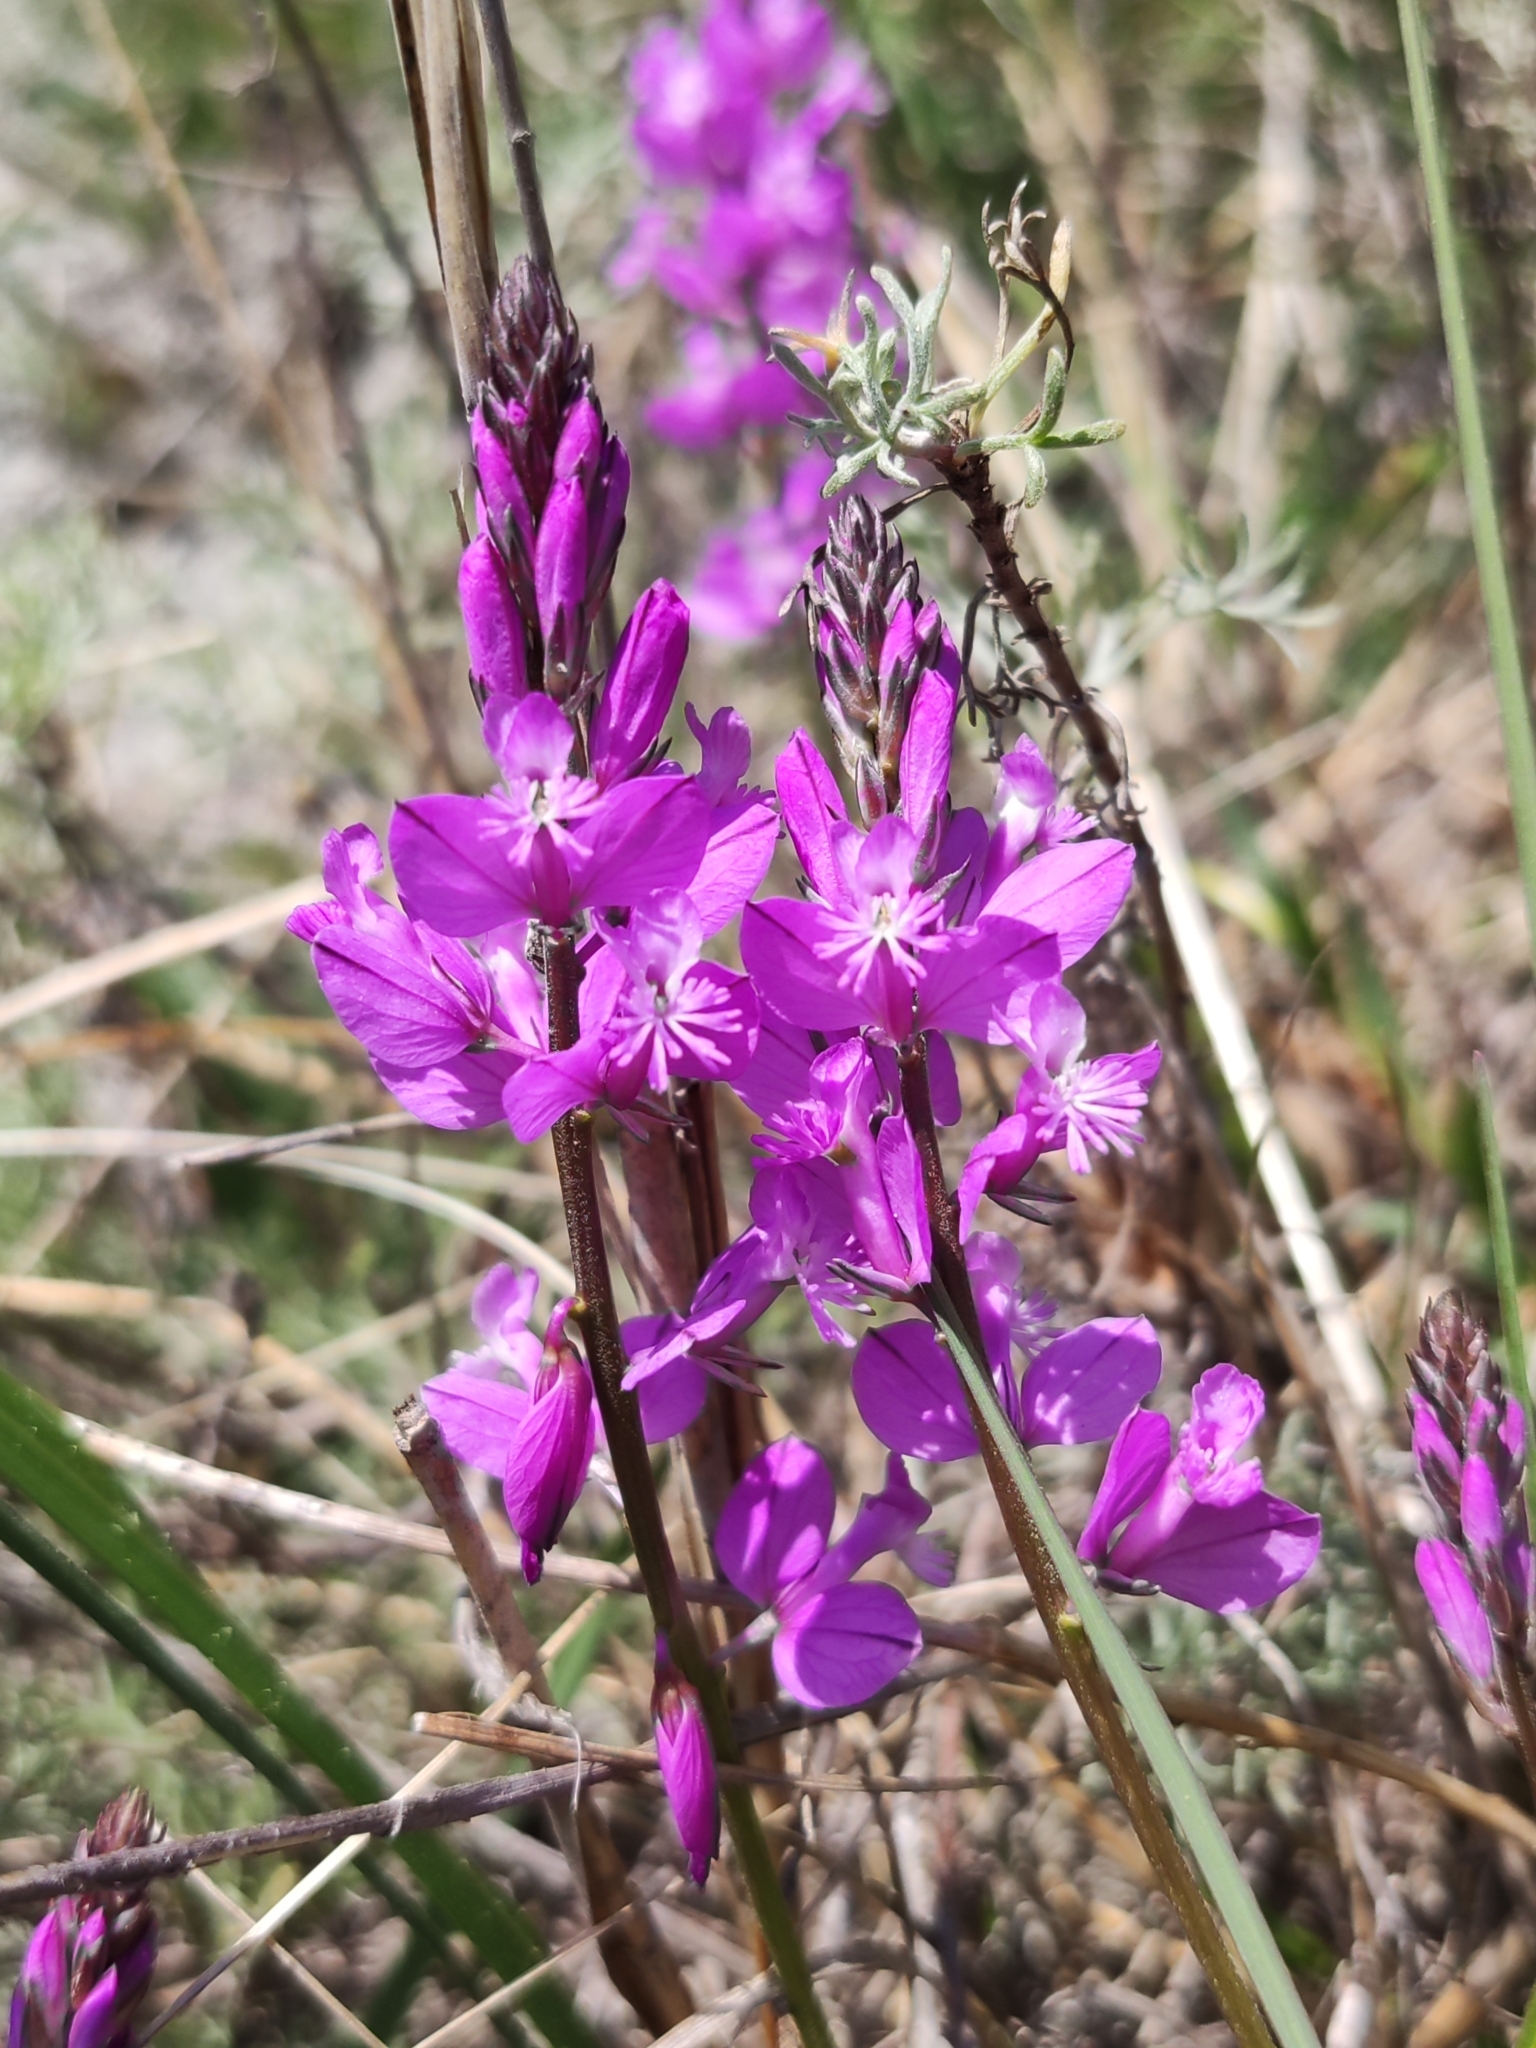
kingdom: Plantae
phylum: Tracheophyta
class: Magnoliopsida
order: Fabales
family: Polygalaceae
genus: Polygala
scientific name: Polygala nicaeensis
